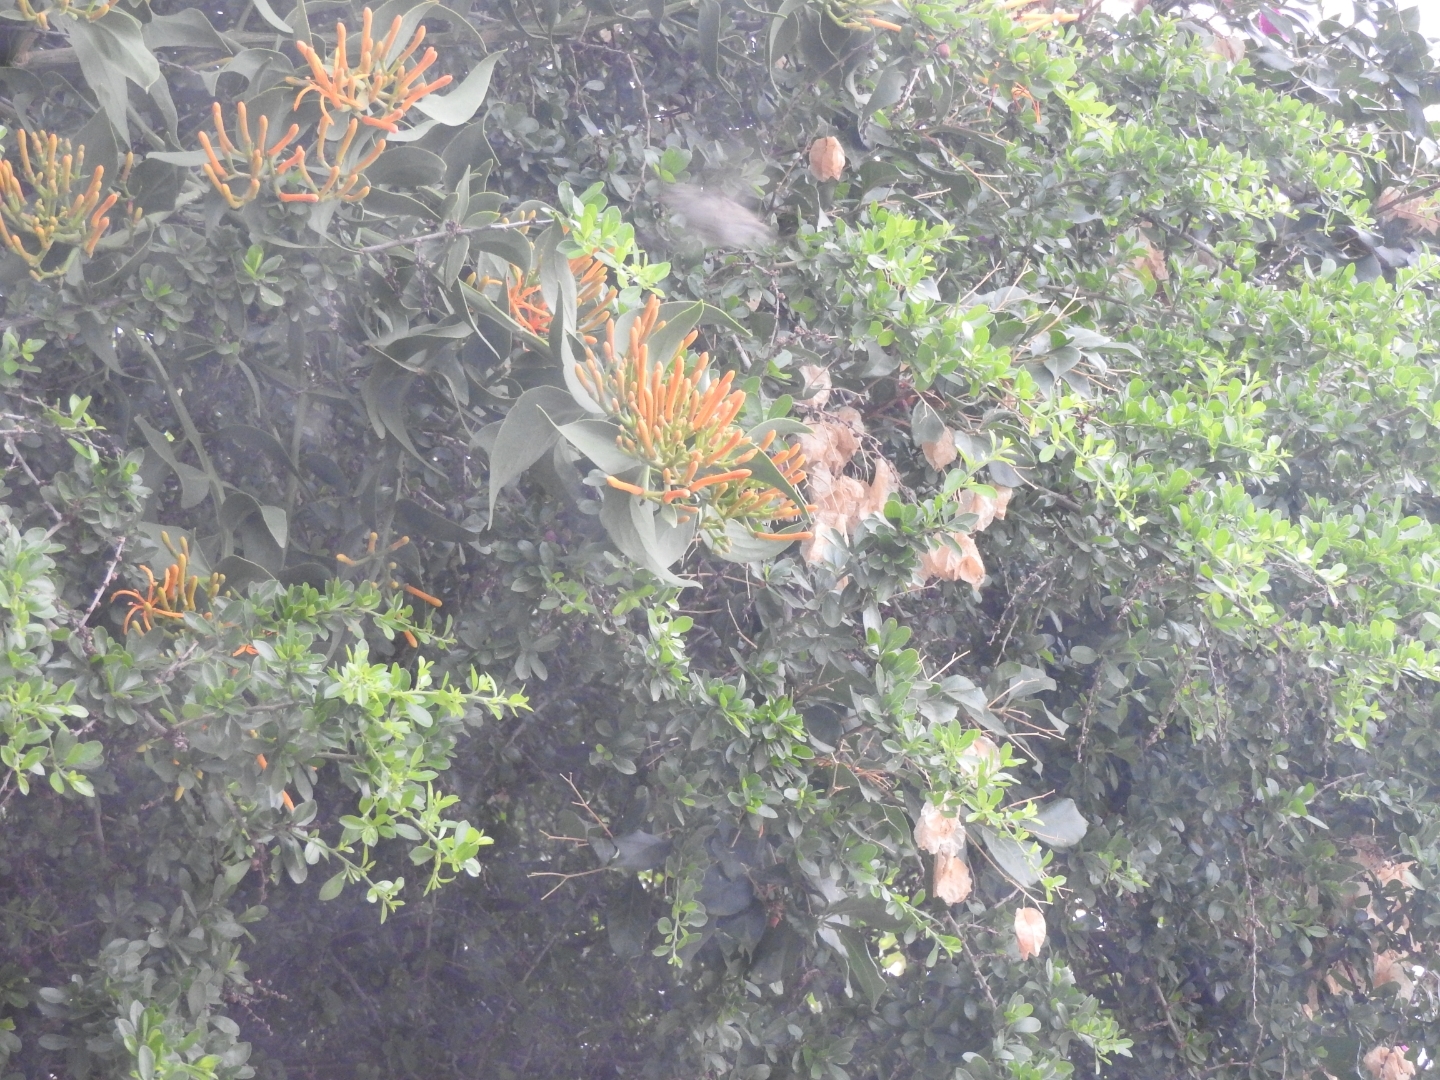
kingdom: Plantae
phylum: Tracheophyta
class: Magnoliopsida
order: Santalales
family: Loranthaceae
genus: Psittacanthus
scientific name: Psittacanthus calyculatus
